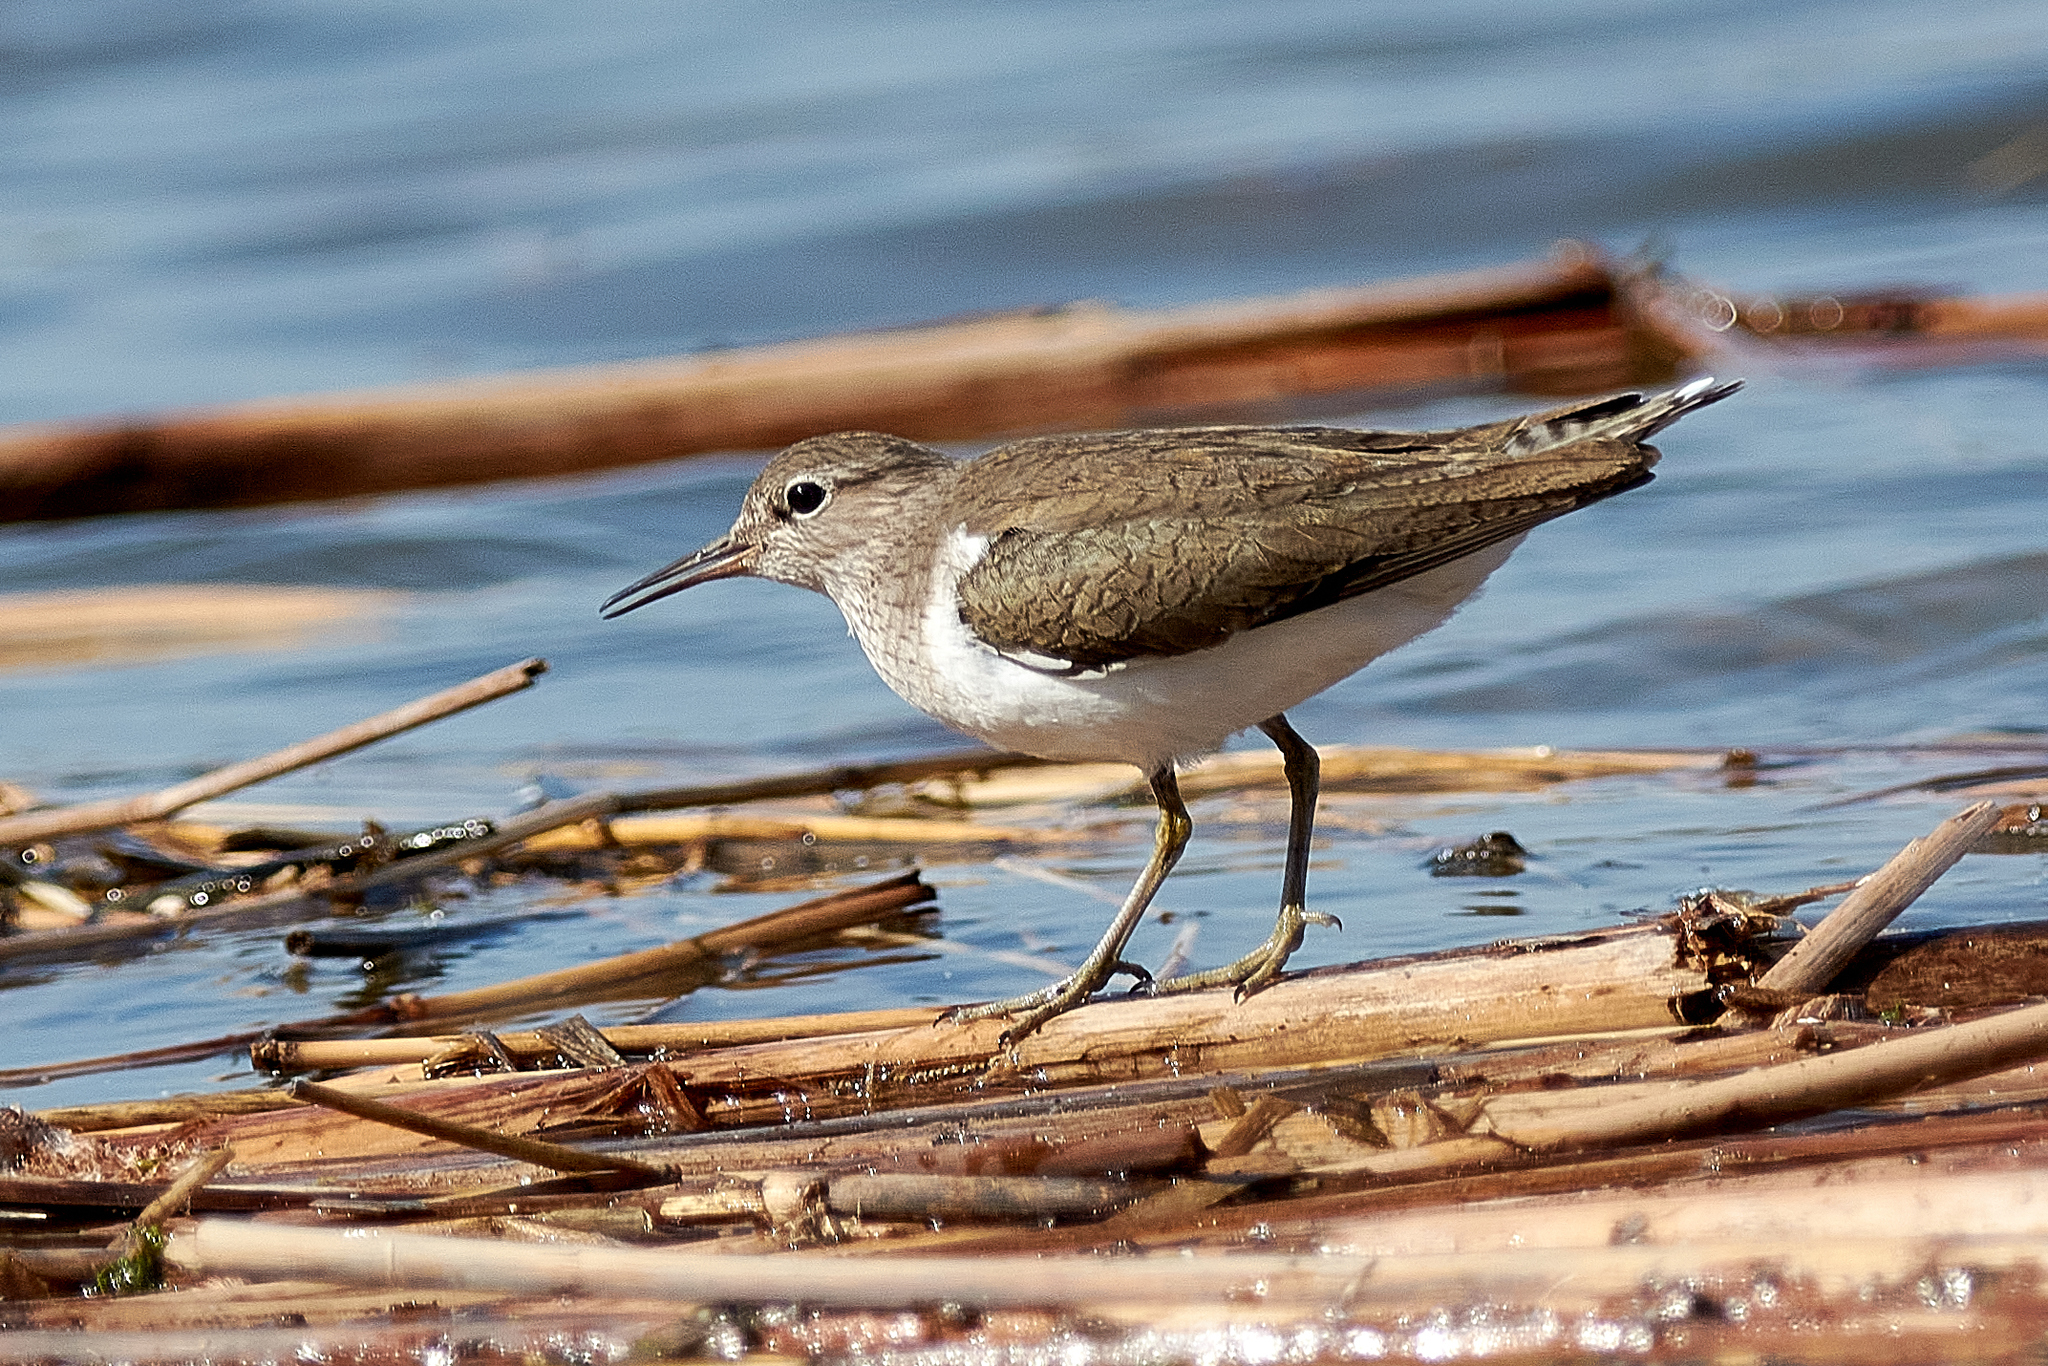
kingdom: Animalia
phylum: Chordata
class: Aves
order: Charadriiformes
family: Scolopacidae
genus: Actitis
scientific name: Actitis hypoleucos
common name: Common sandpiper
